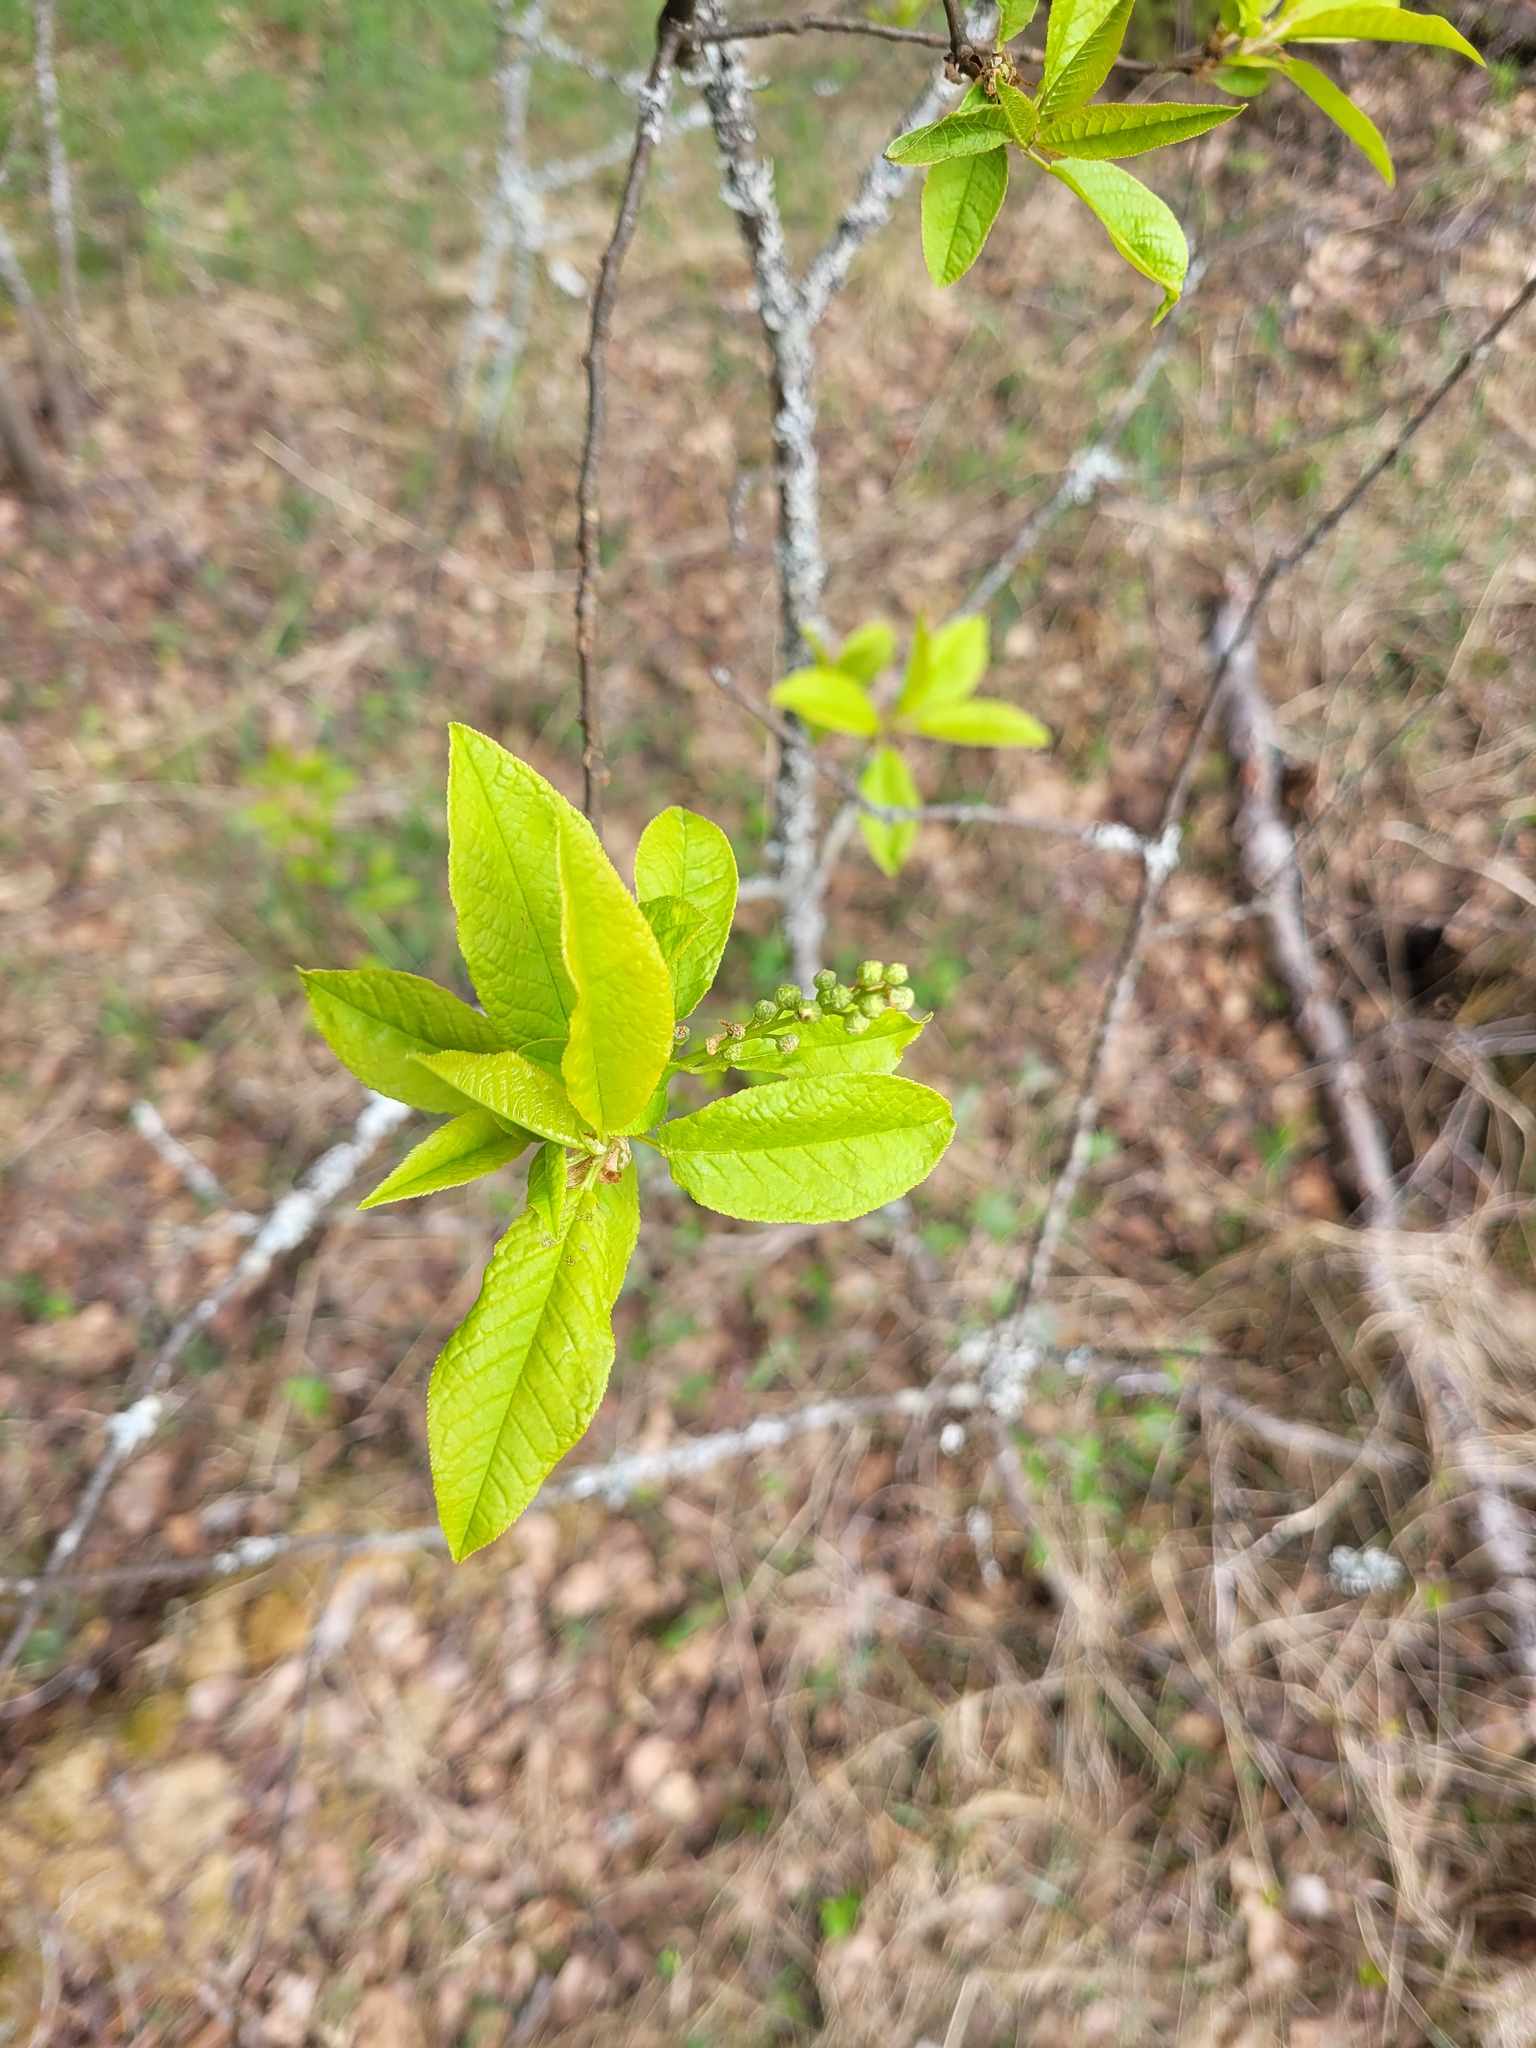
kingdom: Plantae
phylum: Tracheophyta
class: Magnoliopsida
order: Rosales
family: Rosaceae
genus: Prunus
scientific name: Prunus padus
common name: Bird cherry
